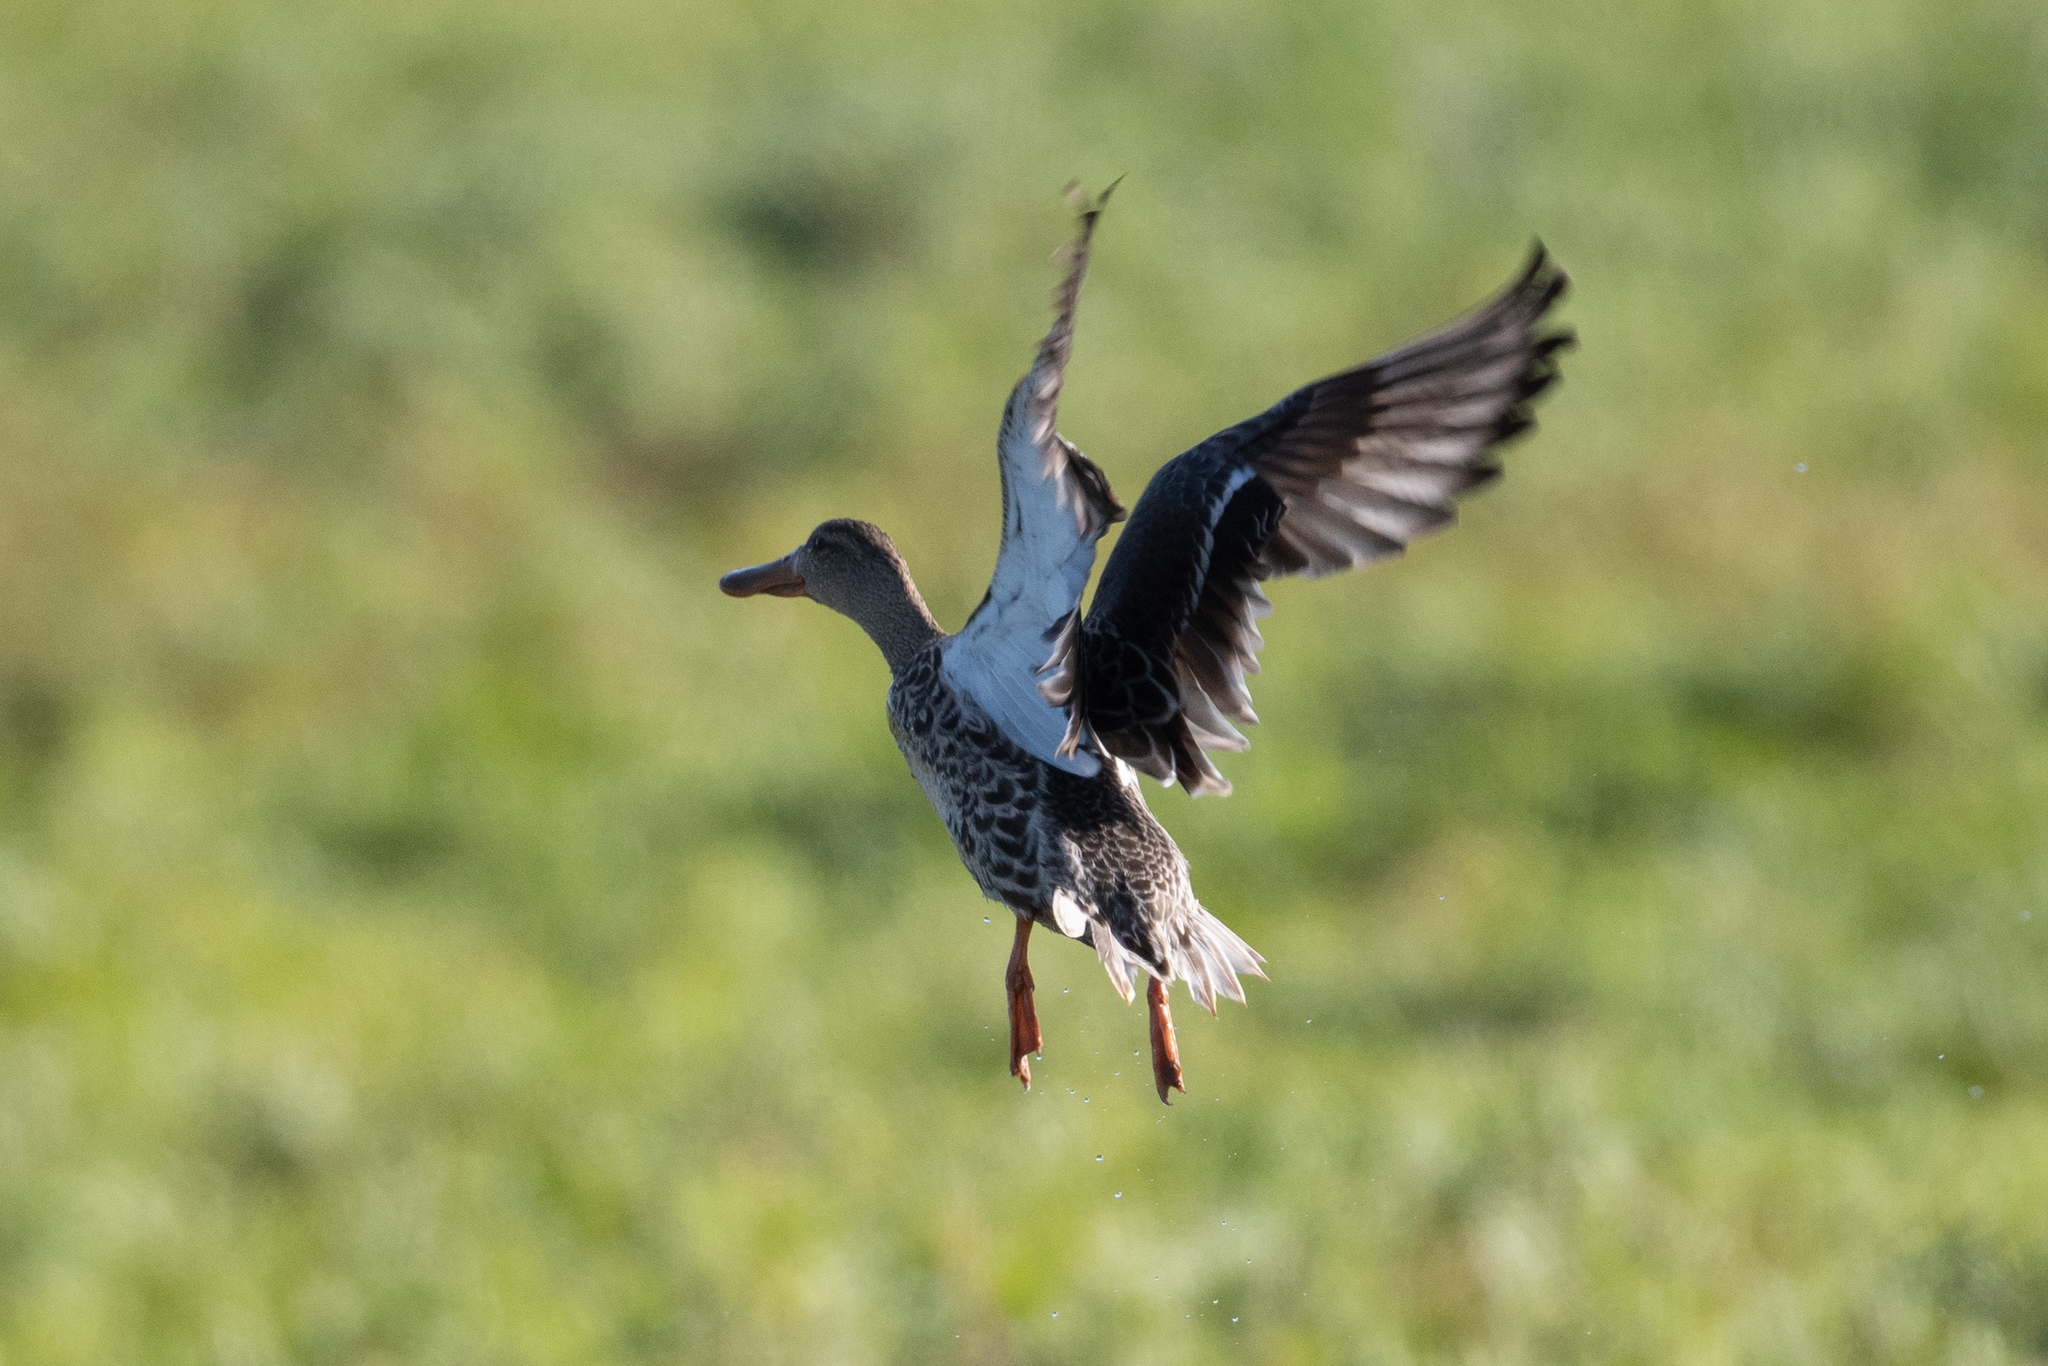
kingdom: Animalia
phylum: Chordata
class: Aves
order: Anseriformes
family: Anatidae
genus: Spatula
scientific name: Spatula clypeata
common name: Northern shoveler
